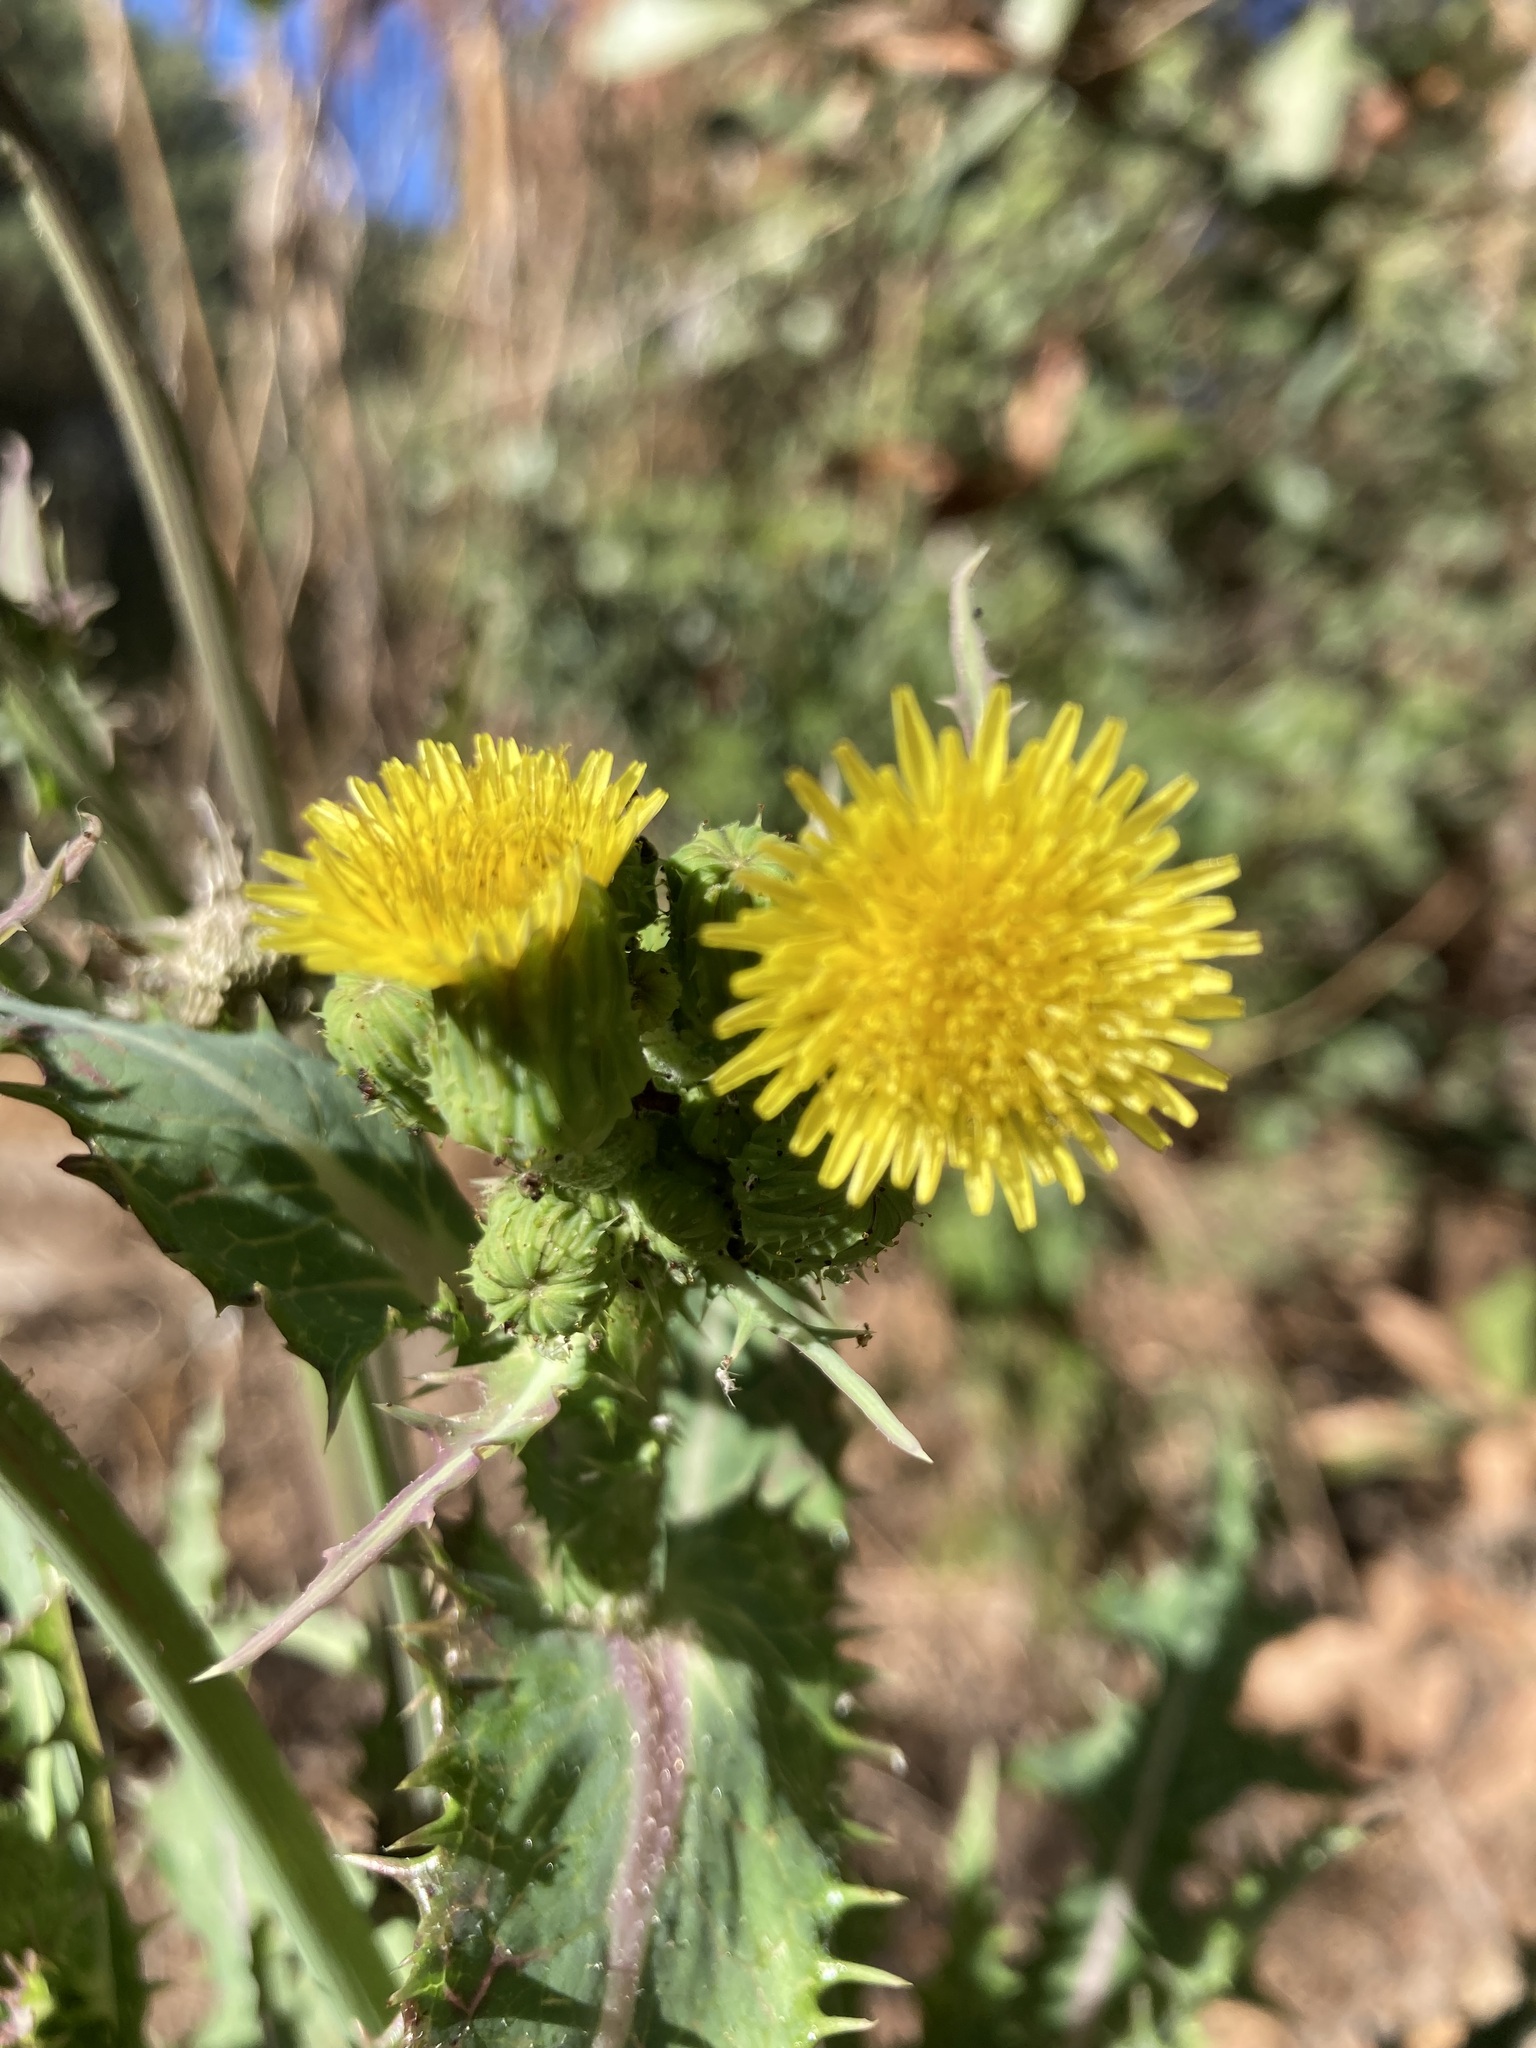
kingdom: Plantae
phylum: Tracheophyta
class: Magnoliopsida
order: Asterales
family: Asteraceae
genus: Sonchus
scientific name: Sonchus asper
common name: Prickly sow-thistle
